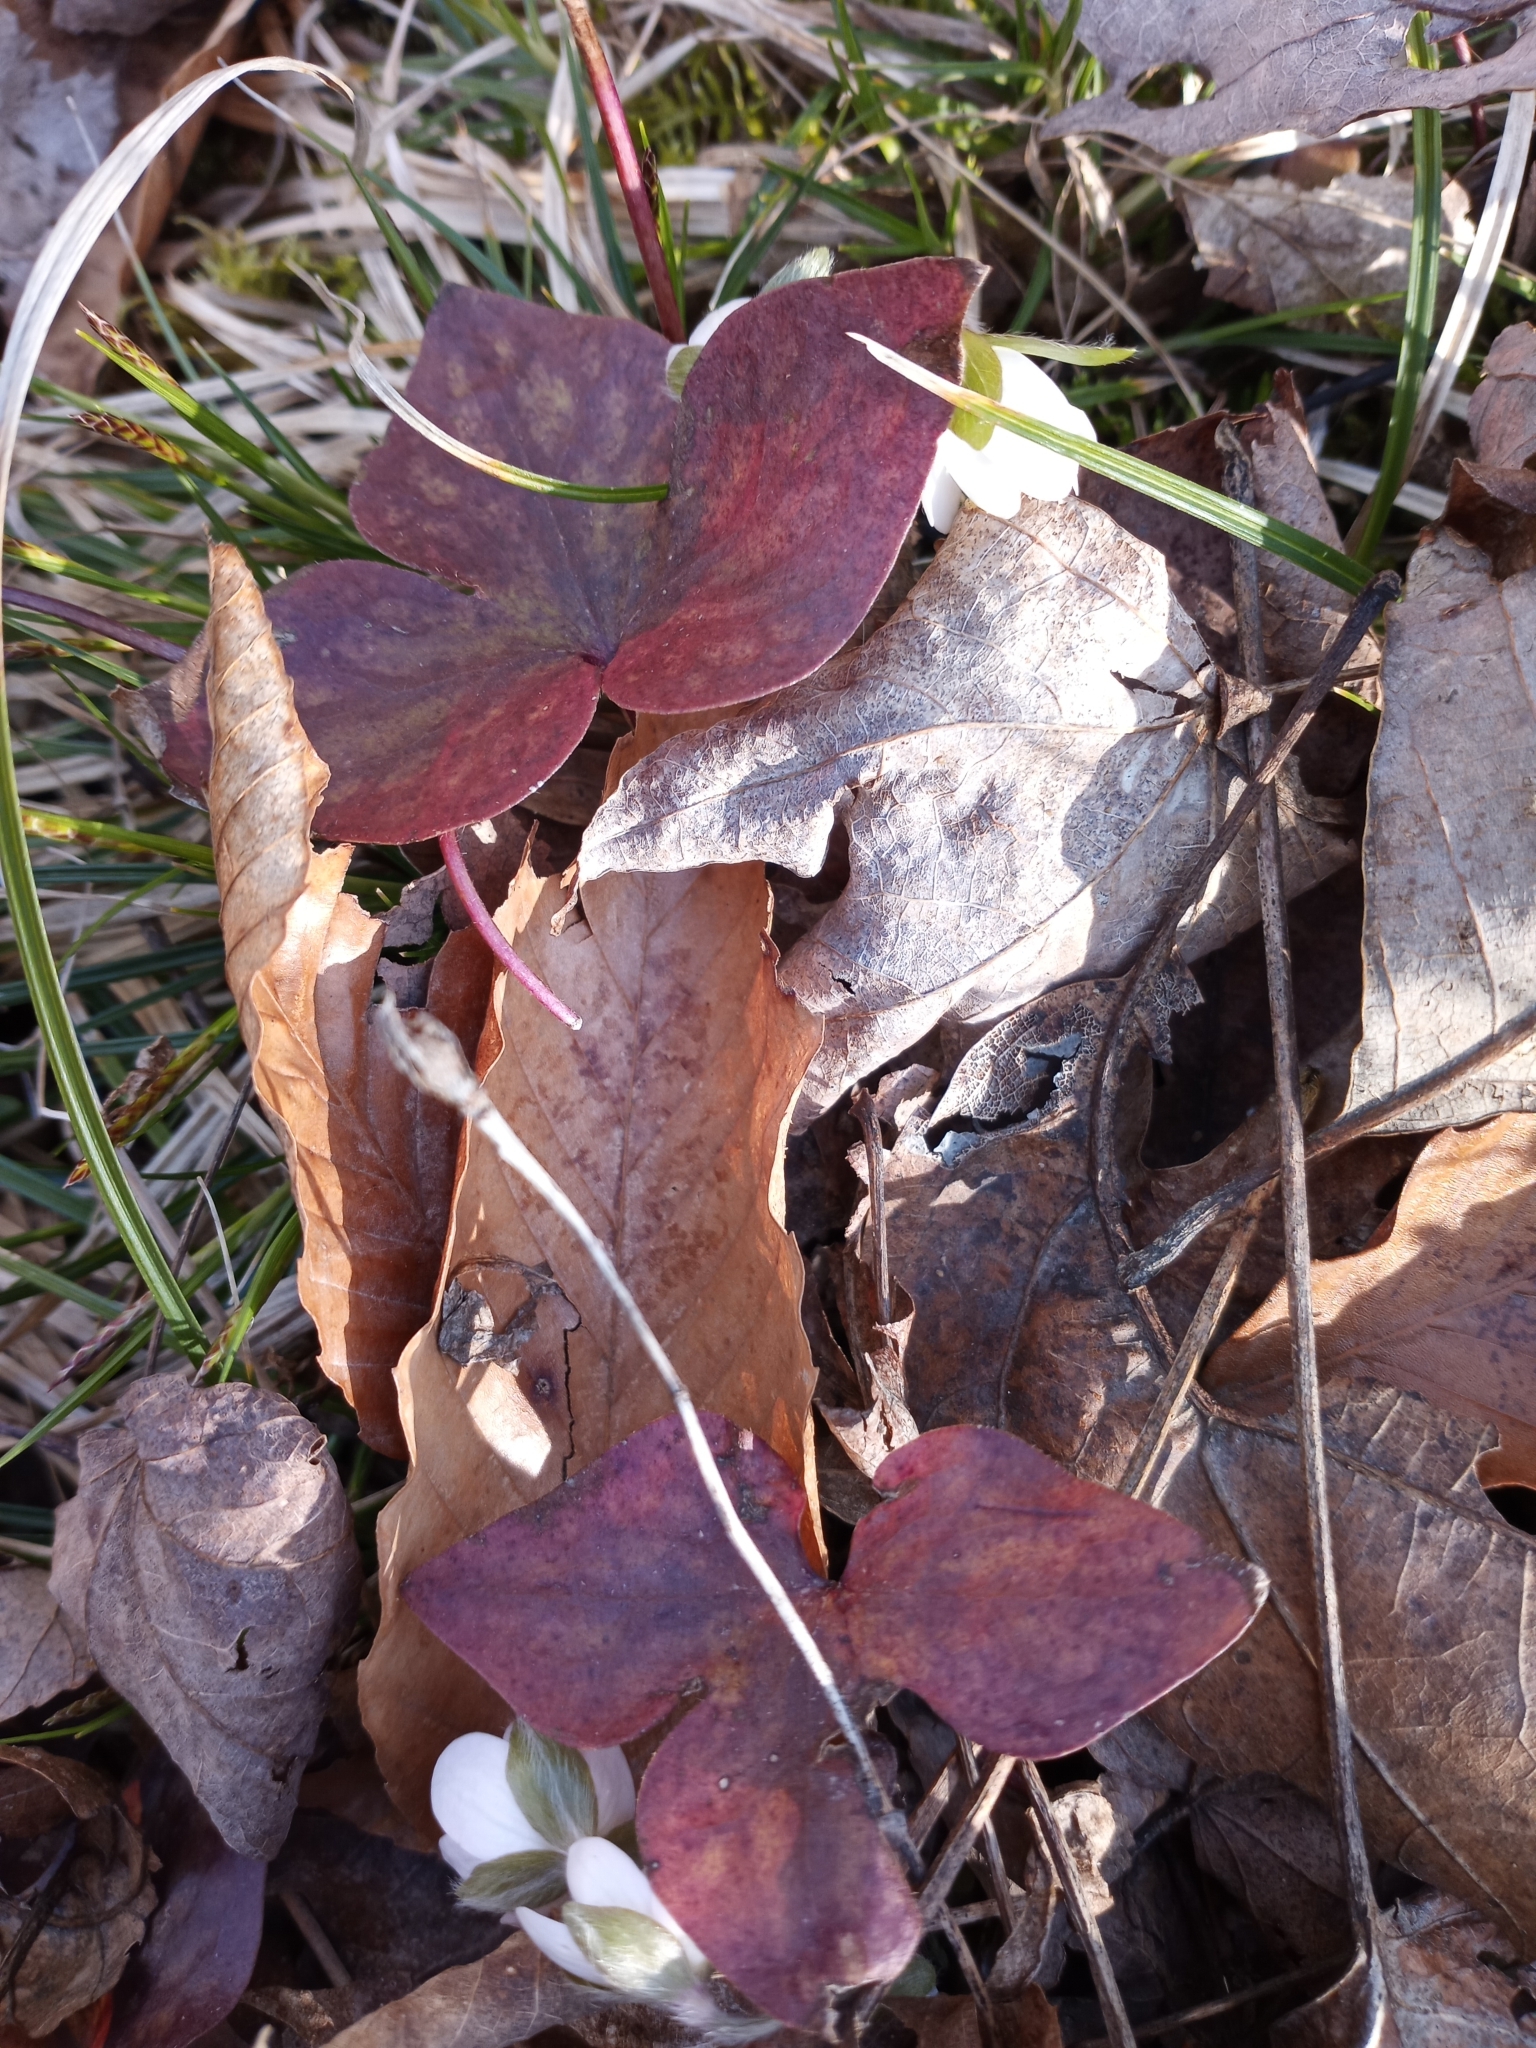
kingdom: Plantae
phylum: Tracheophyta
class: Magnoliopsida
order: Ranunculales
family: Ranunculaceae
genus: Hepatica
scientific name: Hepatica acutiloba
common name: Sharp-lobed hepatica
